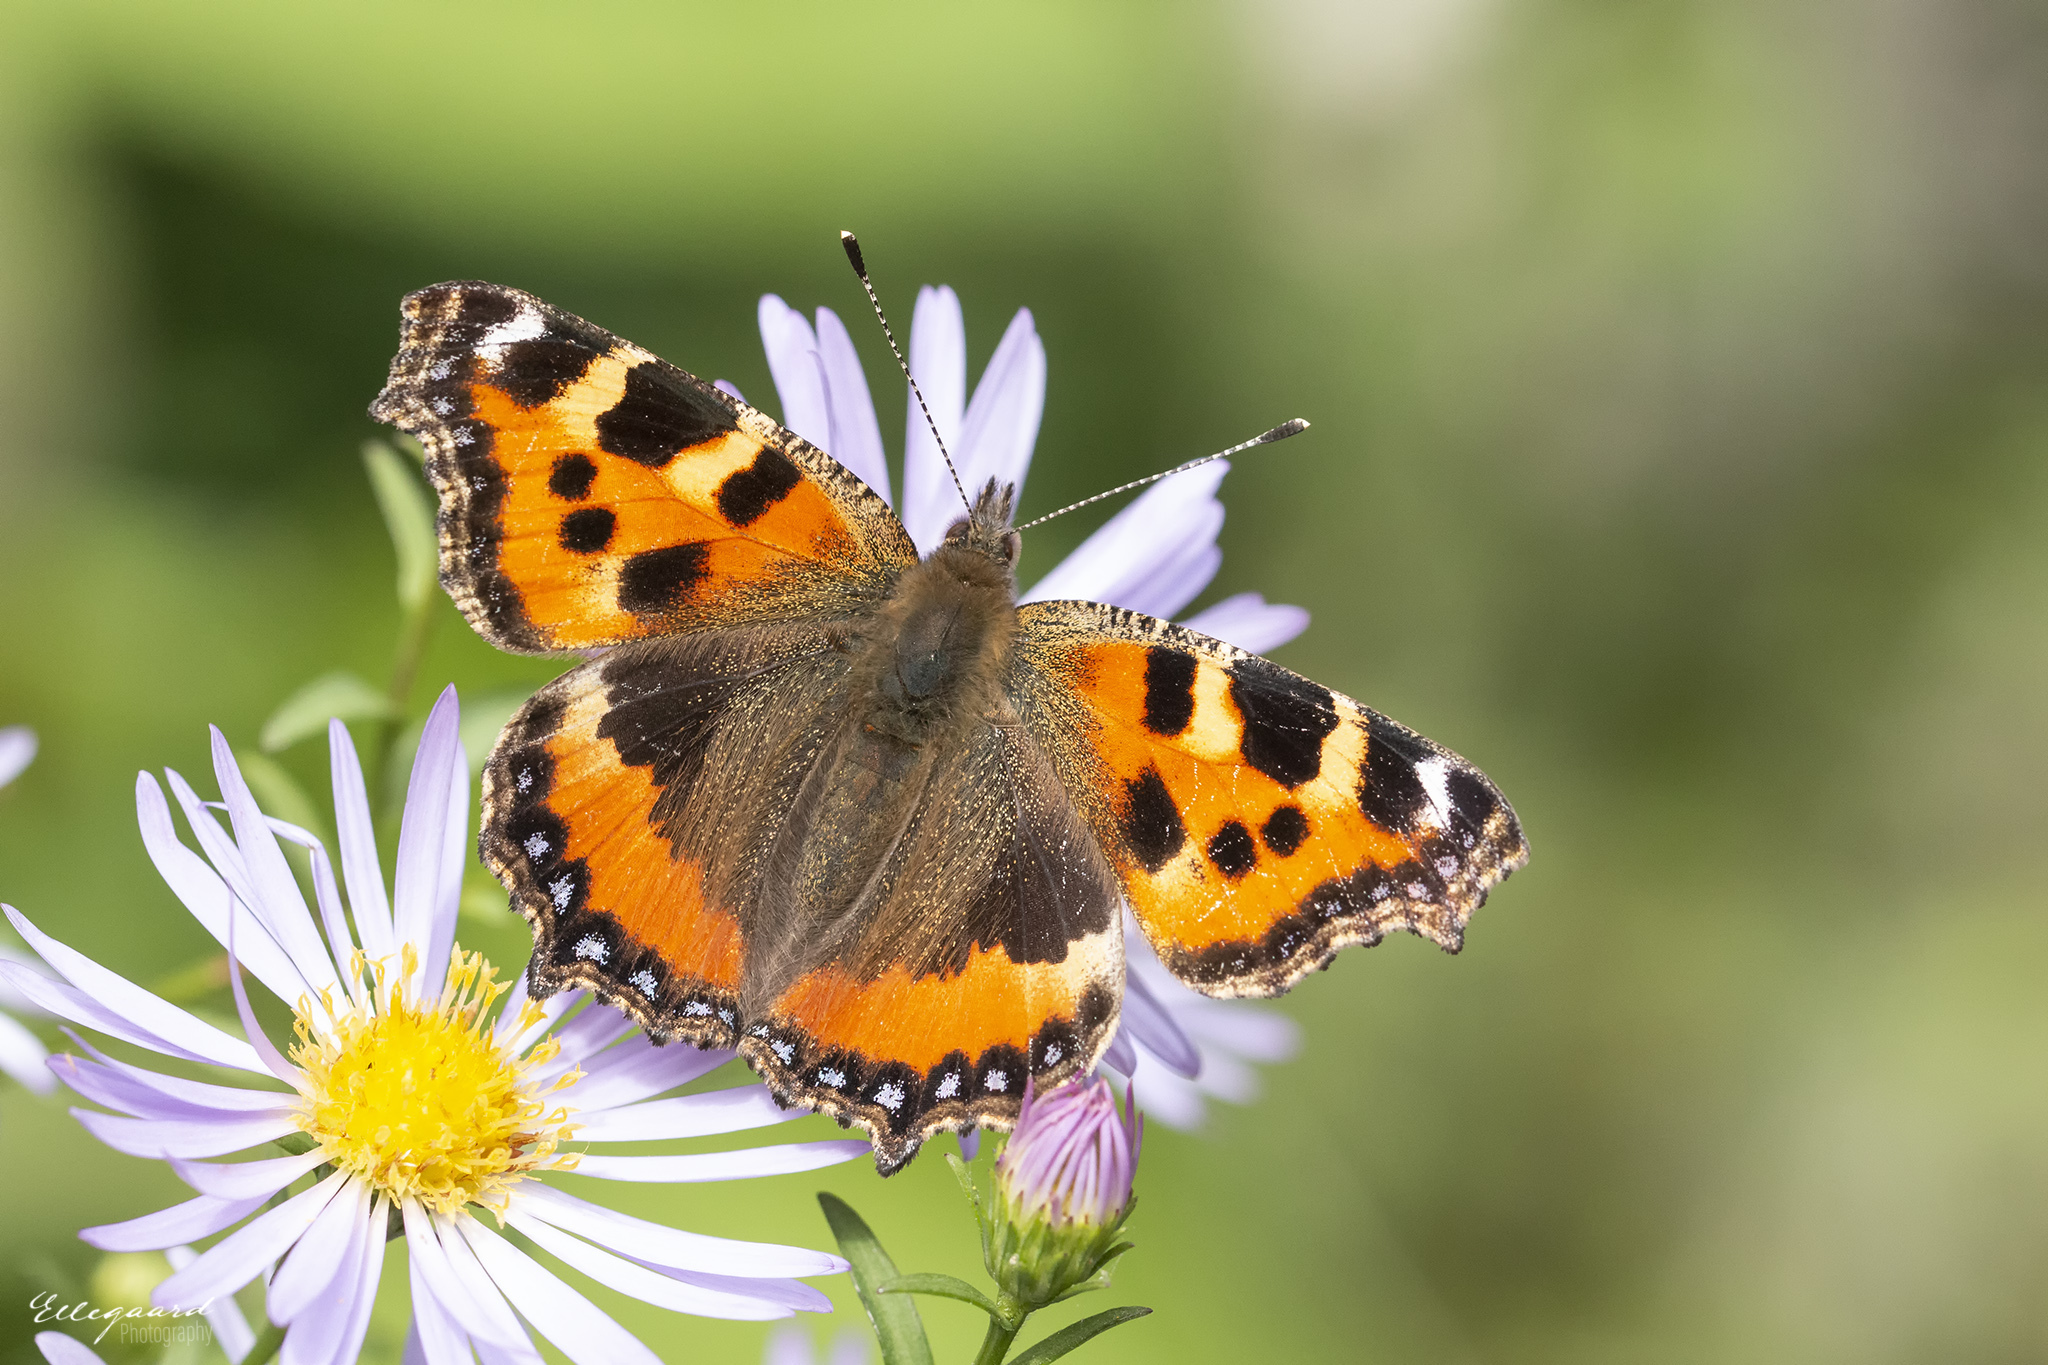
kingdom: Animalia
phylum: Arthropoda
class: Insecta
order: Lepidoptera
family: Nymphalidae
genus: Aglais
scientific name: Aglais urticae
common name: Small tortoiseshell
